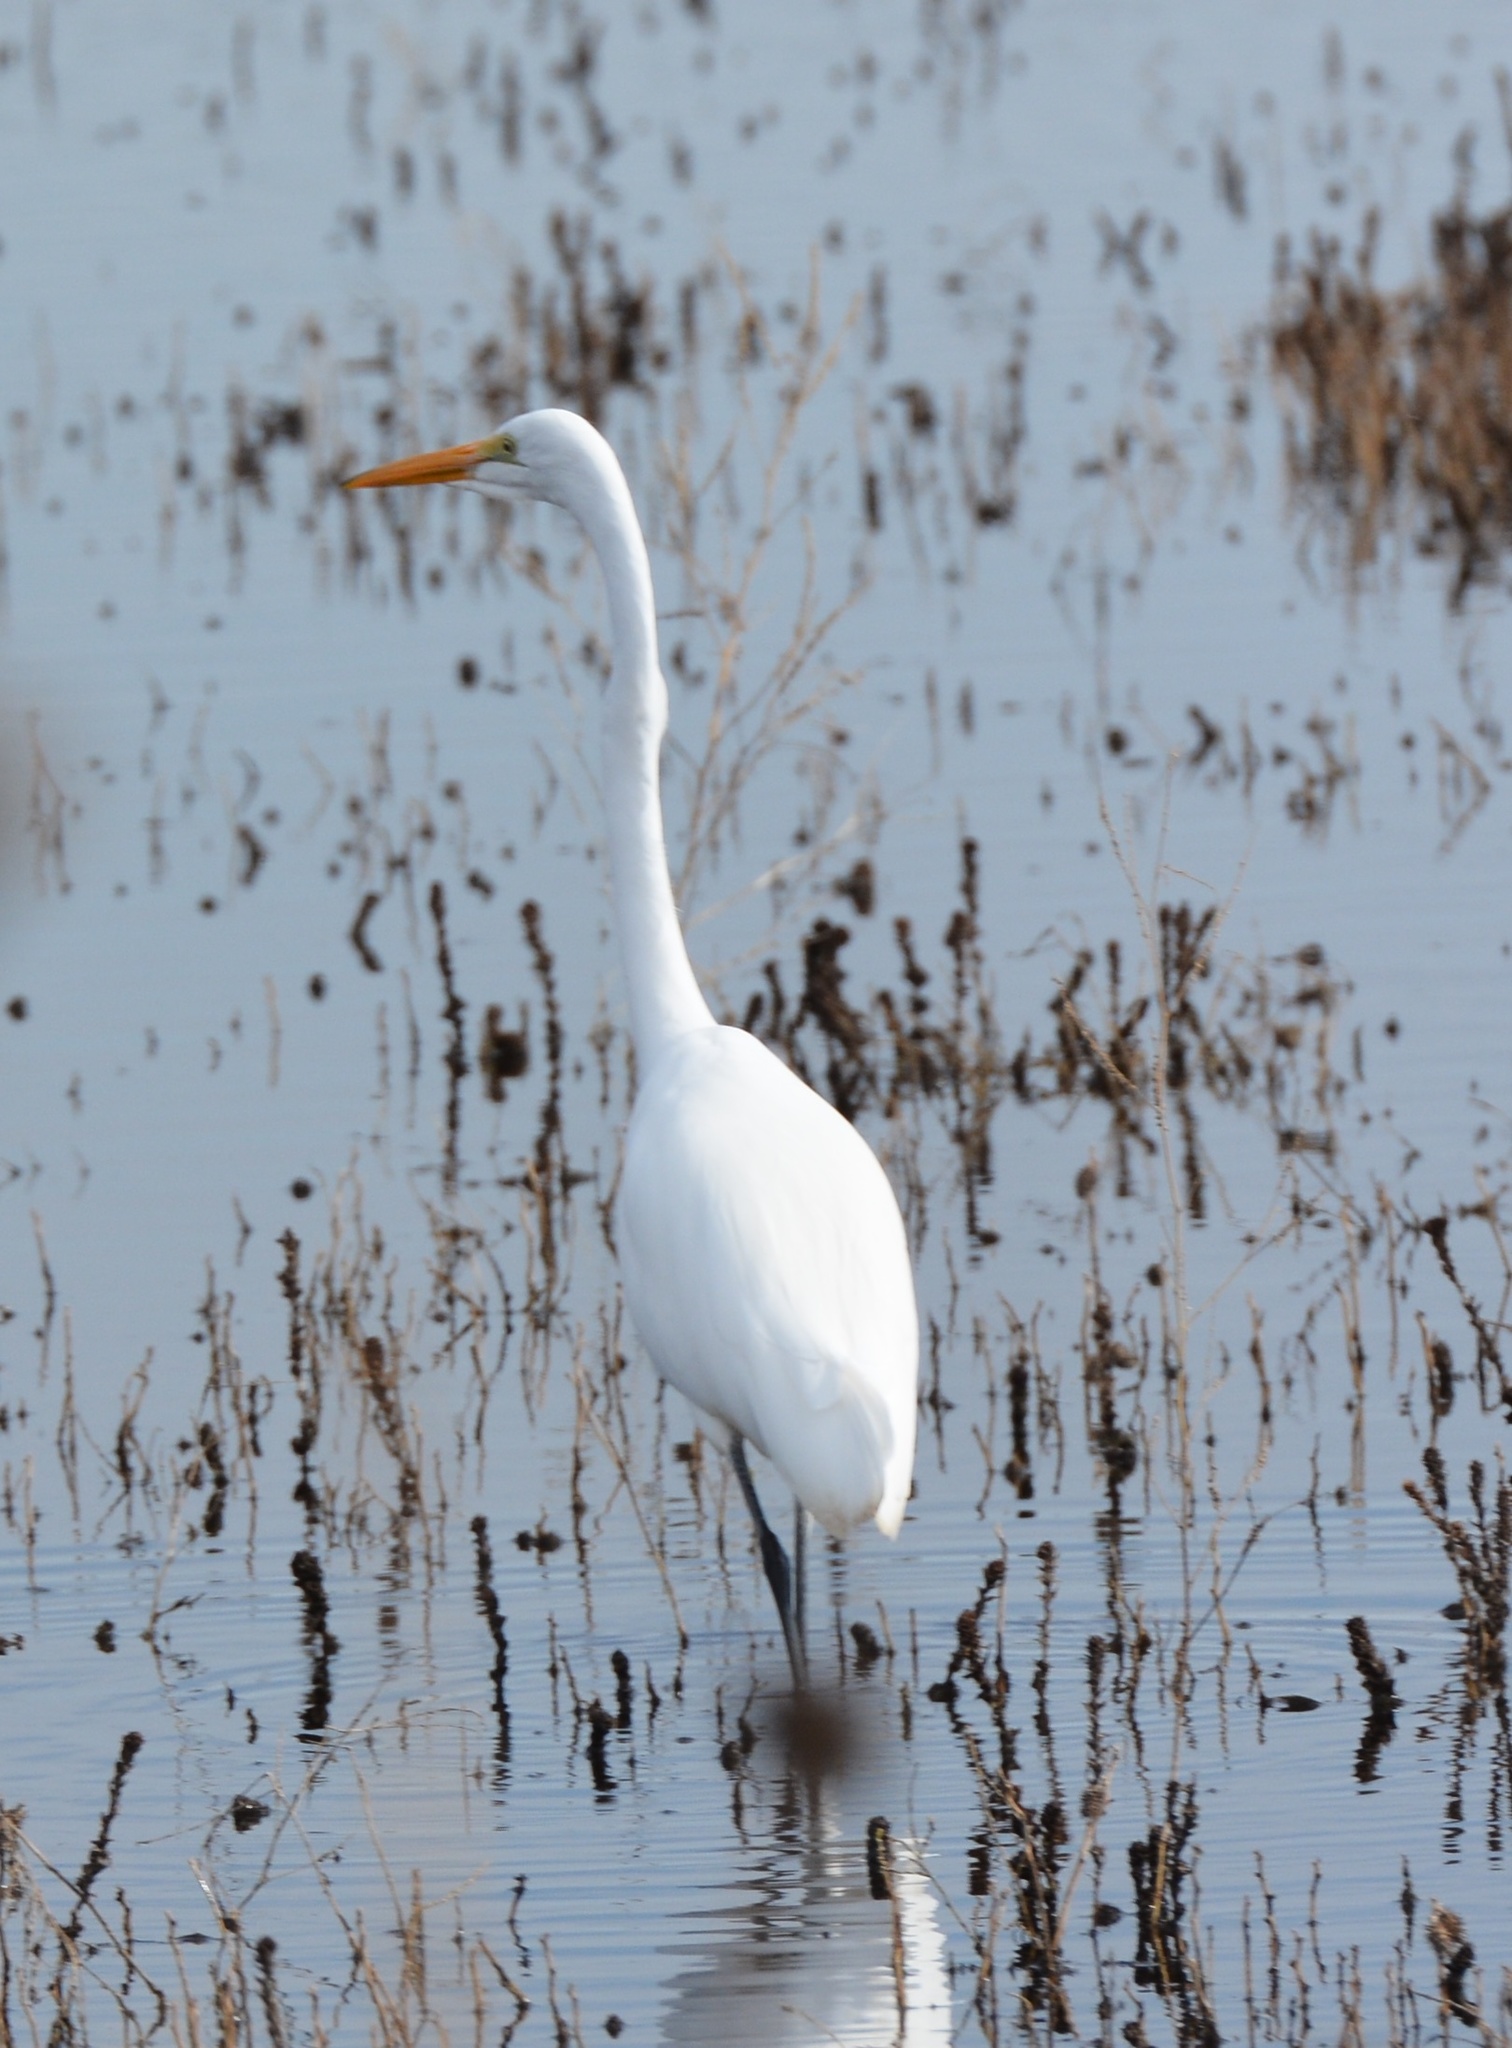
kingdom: Animalia
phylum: Chordata
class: Aves
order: Pelecaniformes
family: Ardeidae
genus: Ardea
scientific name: Ardea alba
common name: Great egret
